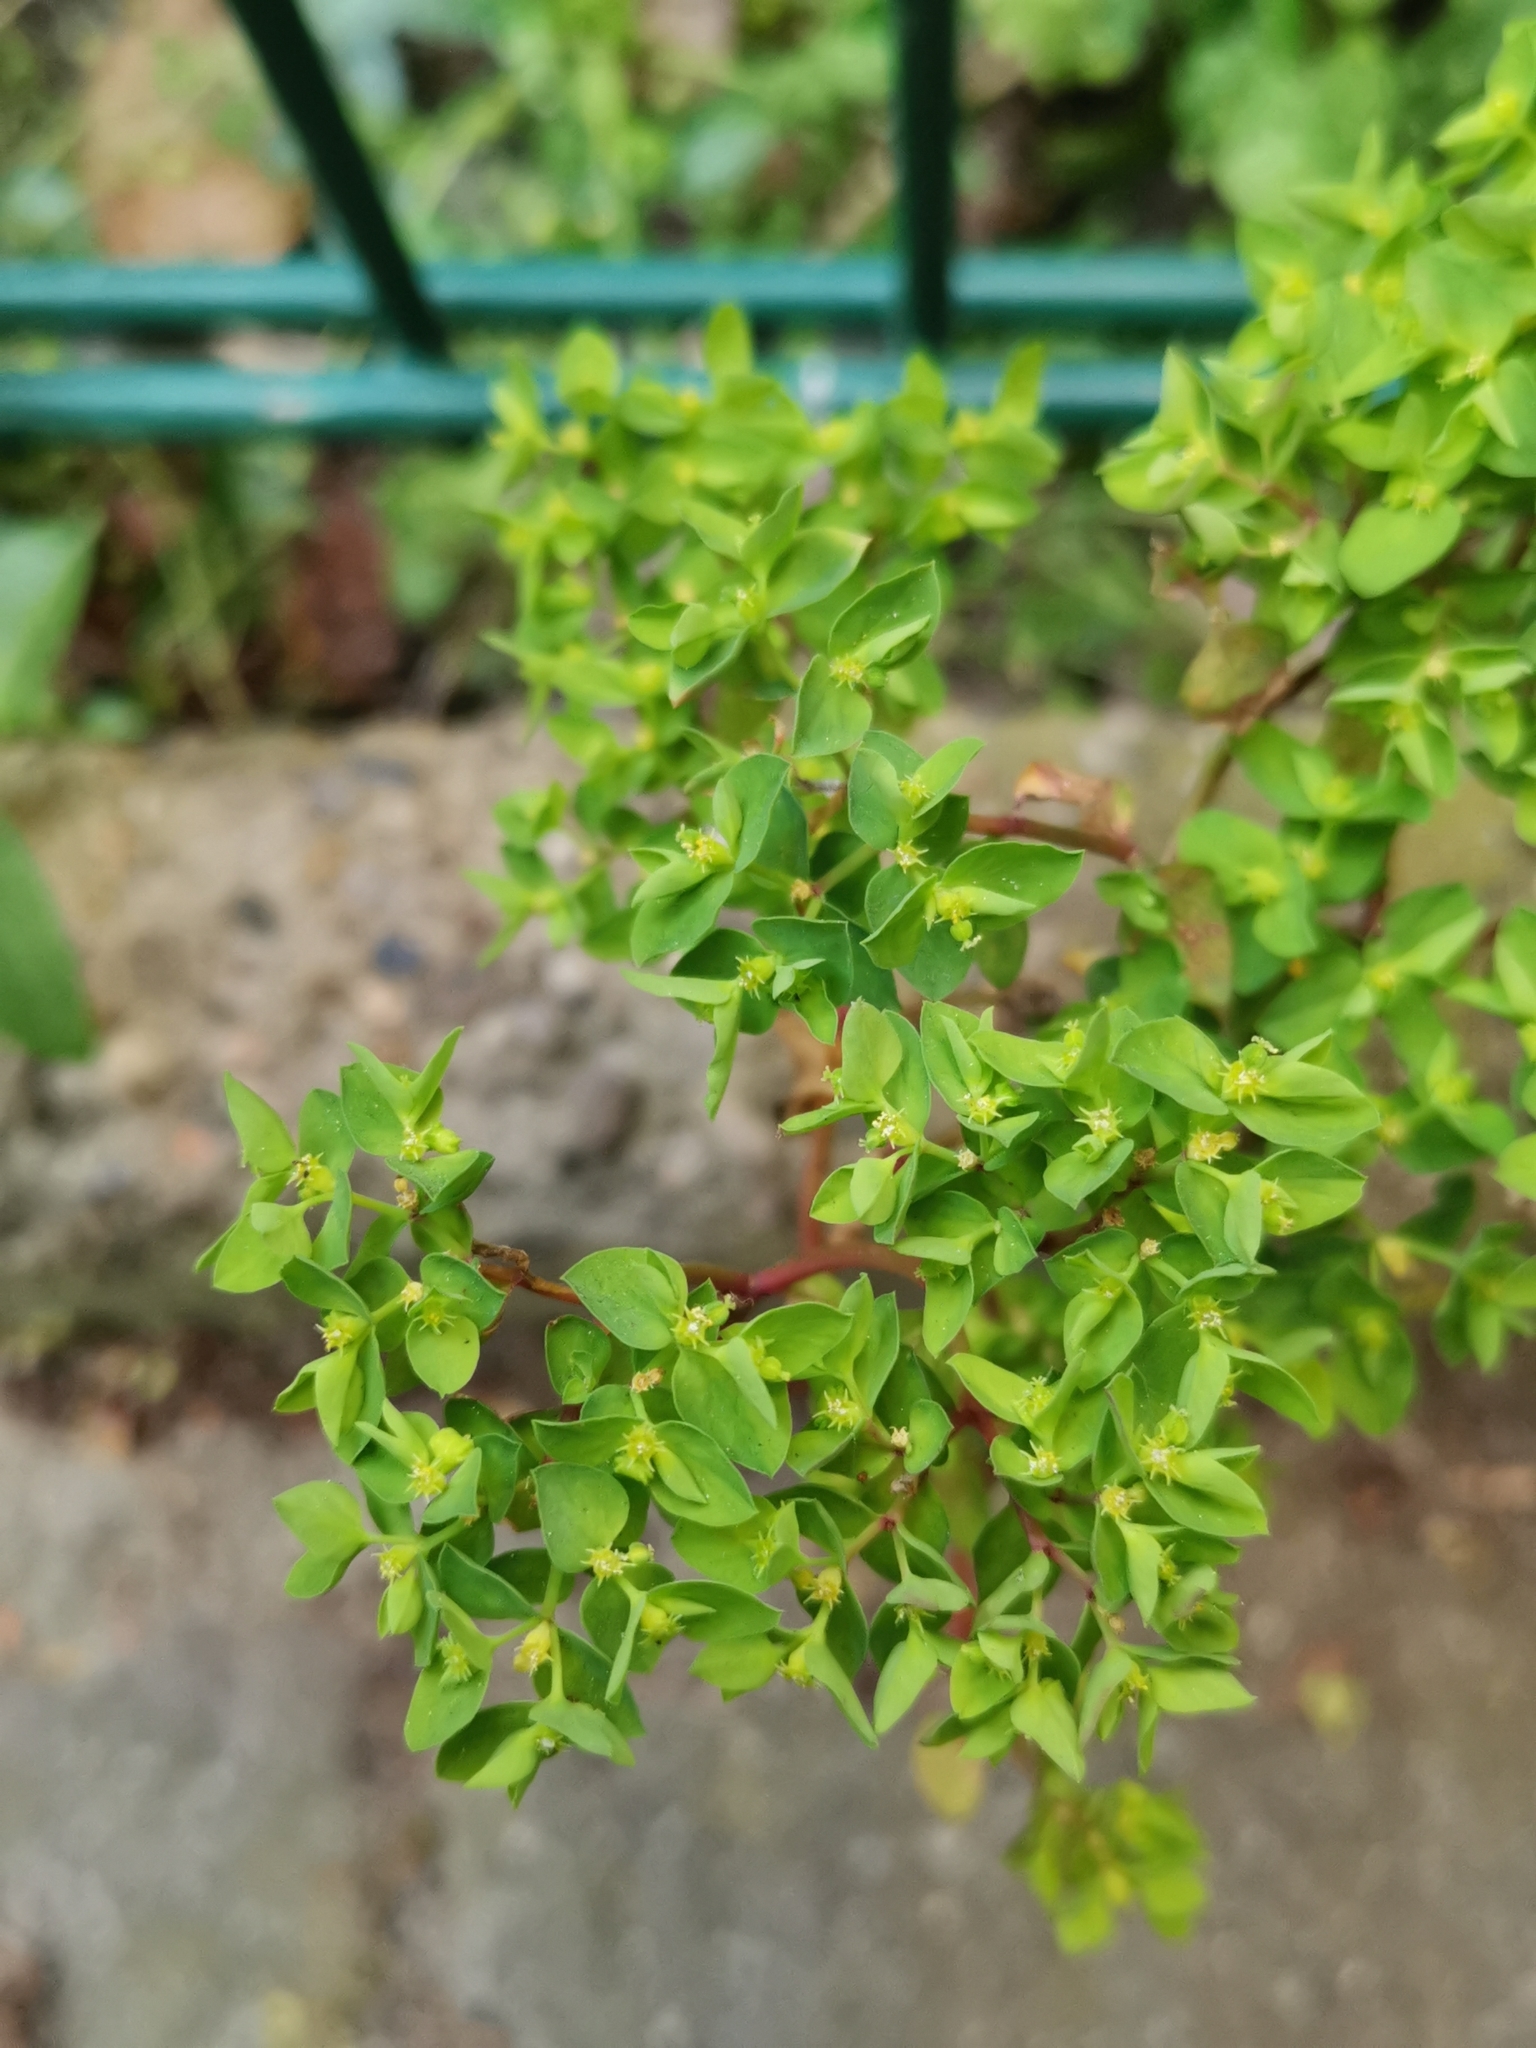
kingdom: Plantae
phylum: Tracheophyta
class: Magnoliopsida
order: Malpighiales
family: Euphorbiaceae
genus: Euphorbia
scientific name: Euphorbia peplus
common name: Petty spurge
